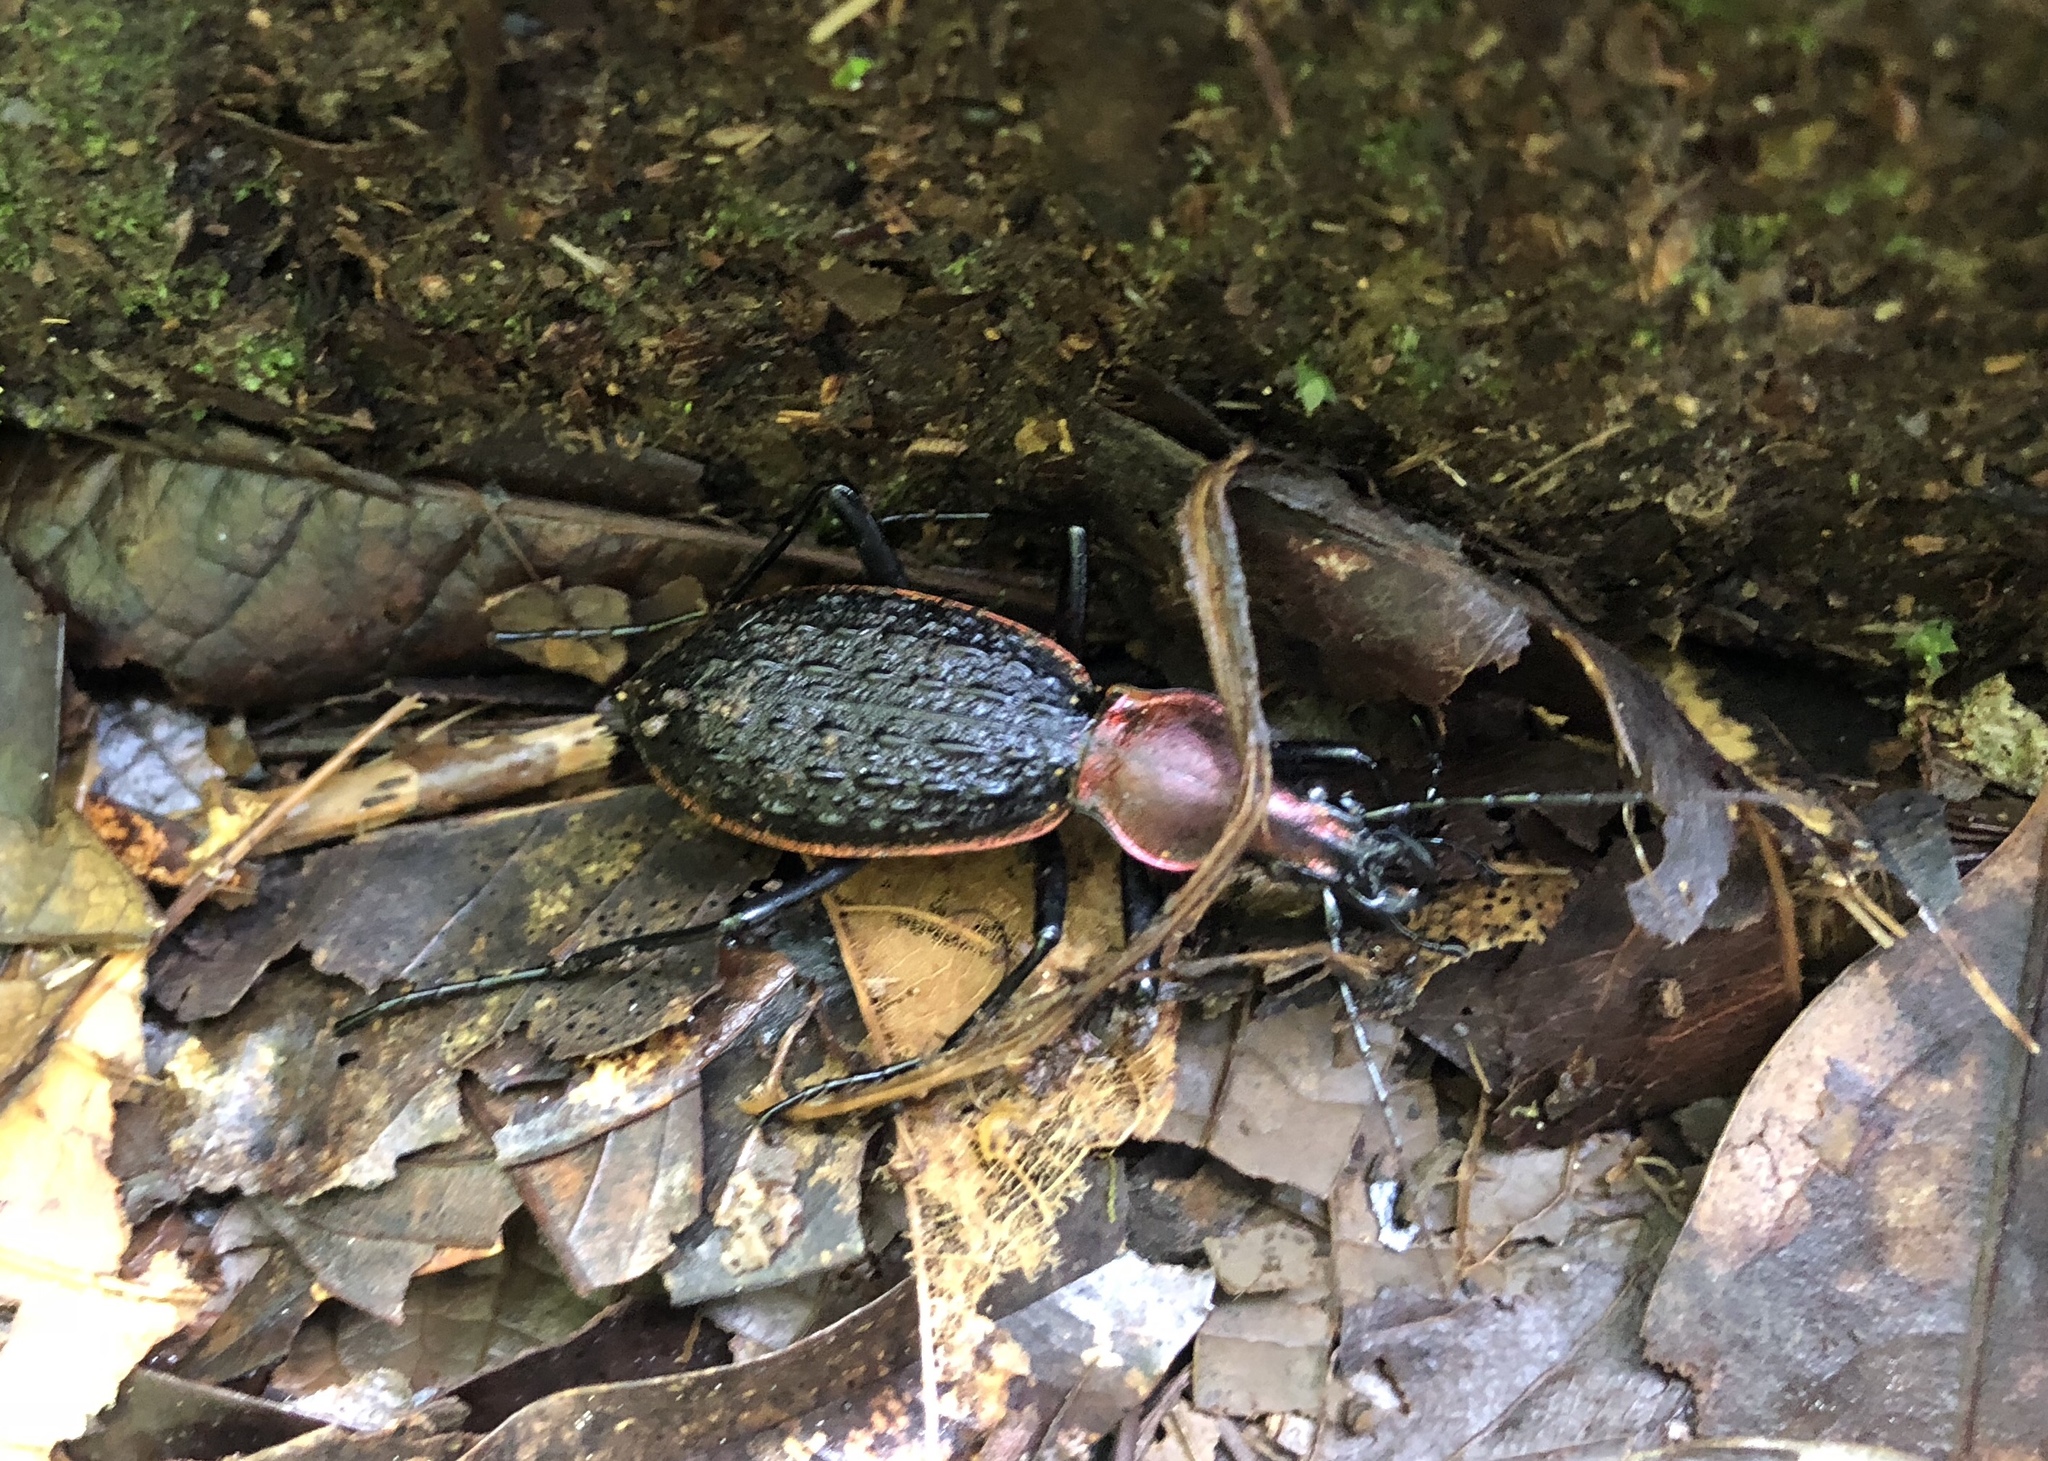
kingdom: Animalia
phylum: Arthropoda
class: Insecta
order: Coleoptera
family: Carabidae
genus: Carabus
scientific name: Carabus nankotaizanus
